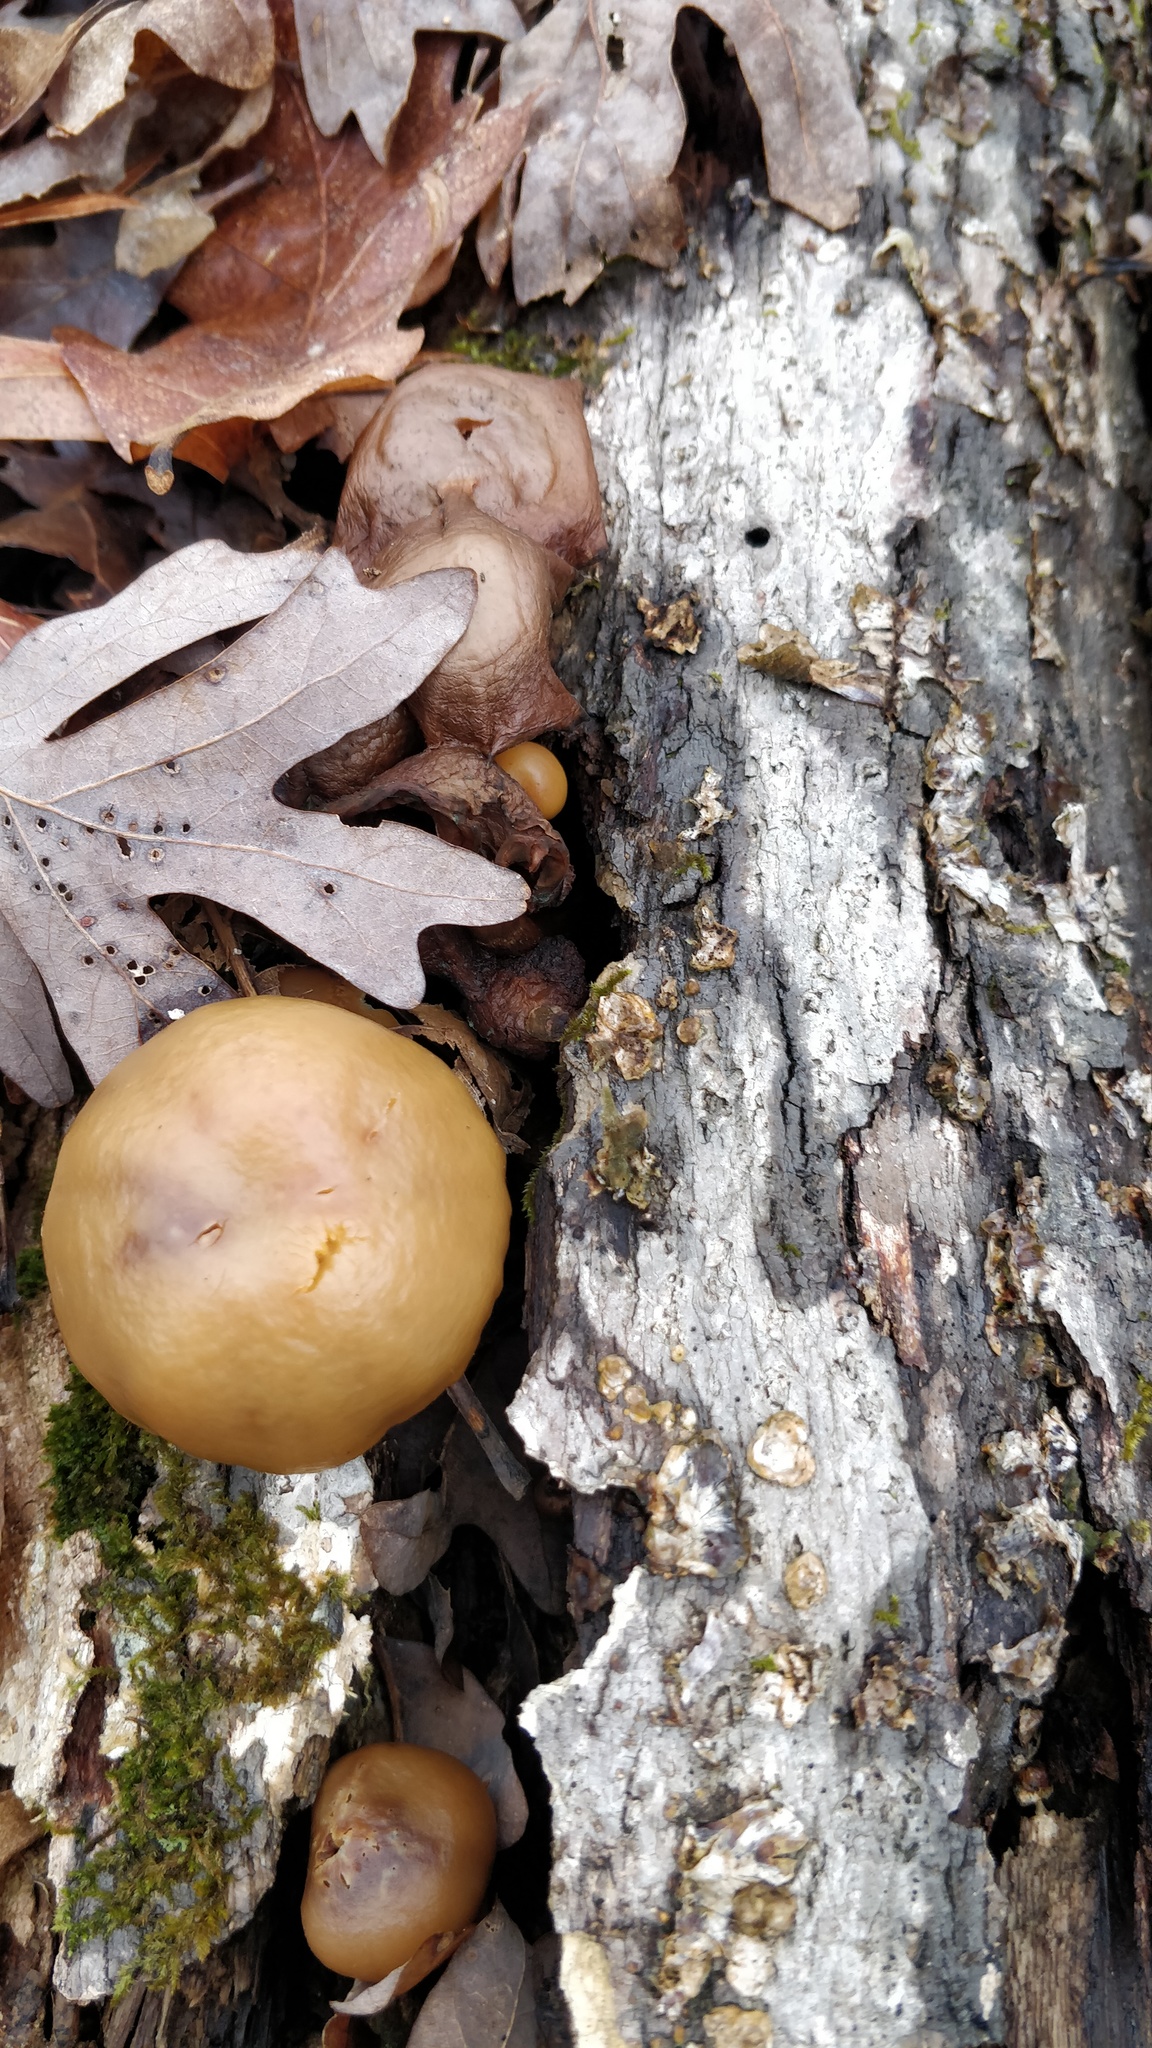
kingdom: Fungi
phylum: Basidiomycota
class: Agaricomycetes
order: Agaricales
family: Hymenogastraceae
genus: Galerina
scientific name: Galerina marginata
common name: Funeral bell
